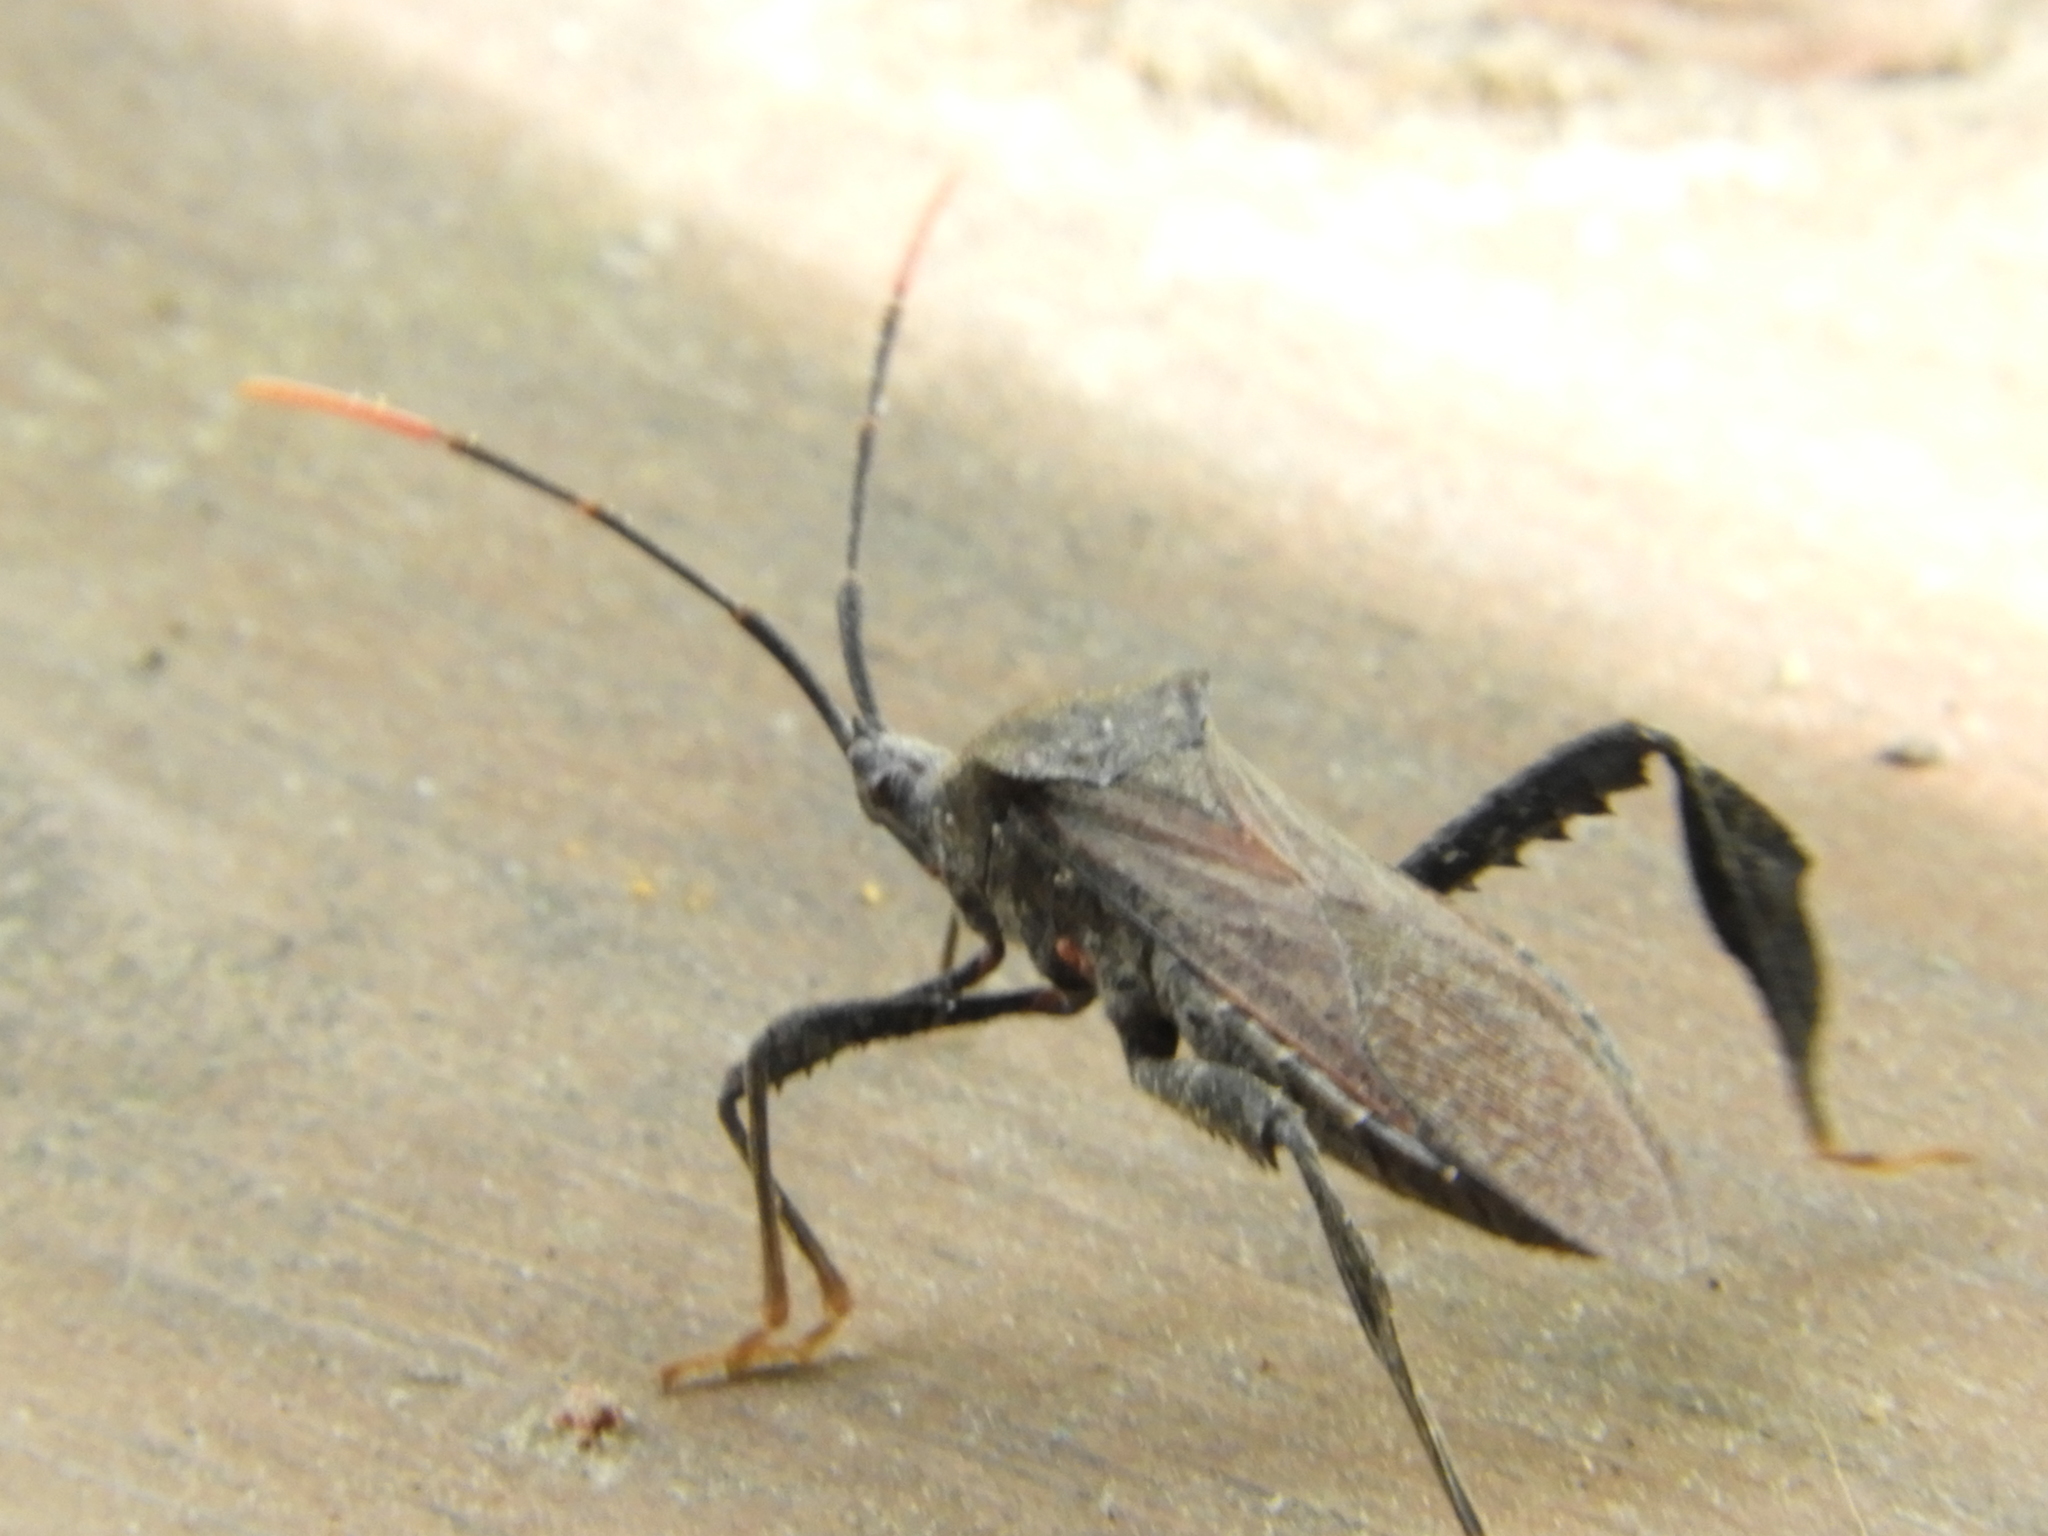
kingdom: Animalia
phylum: Arthropoda
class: Insecta
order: Hemiptera
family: Coreidae
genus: Acanthocephala
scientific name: Acanthocephala terminalis
